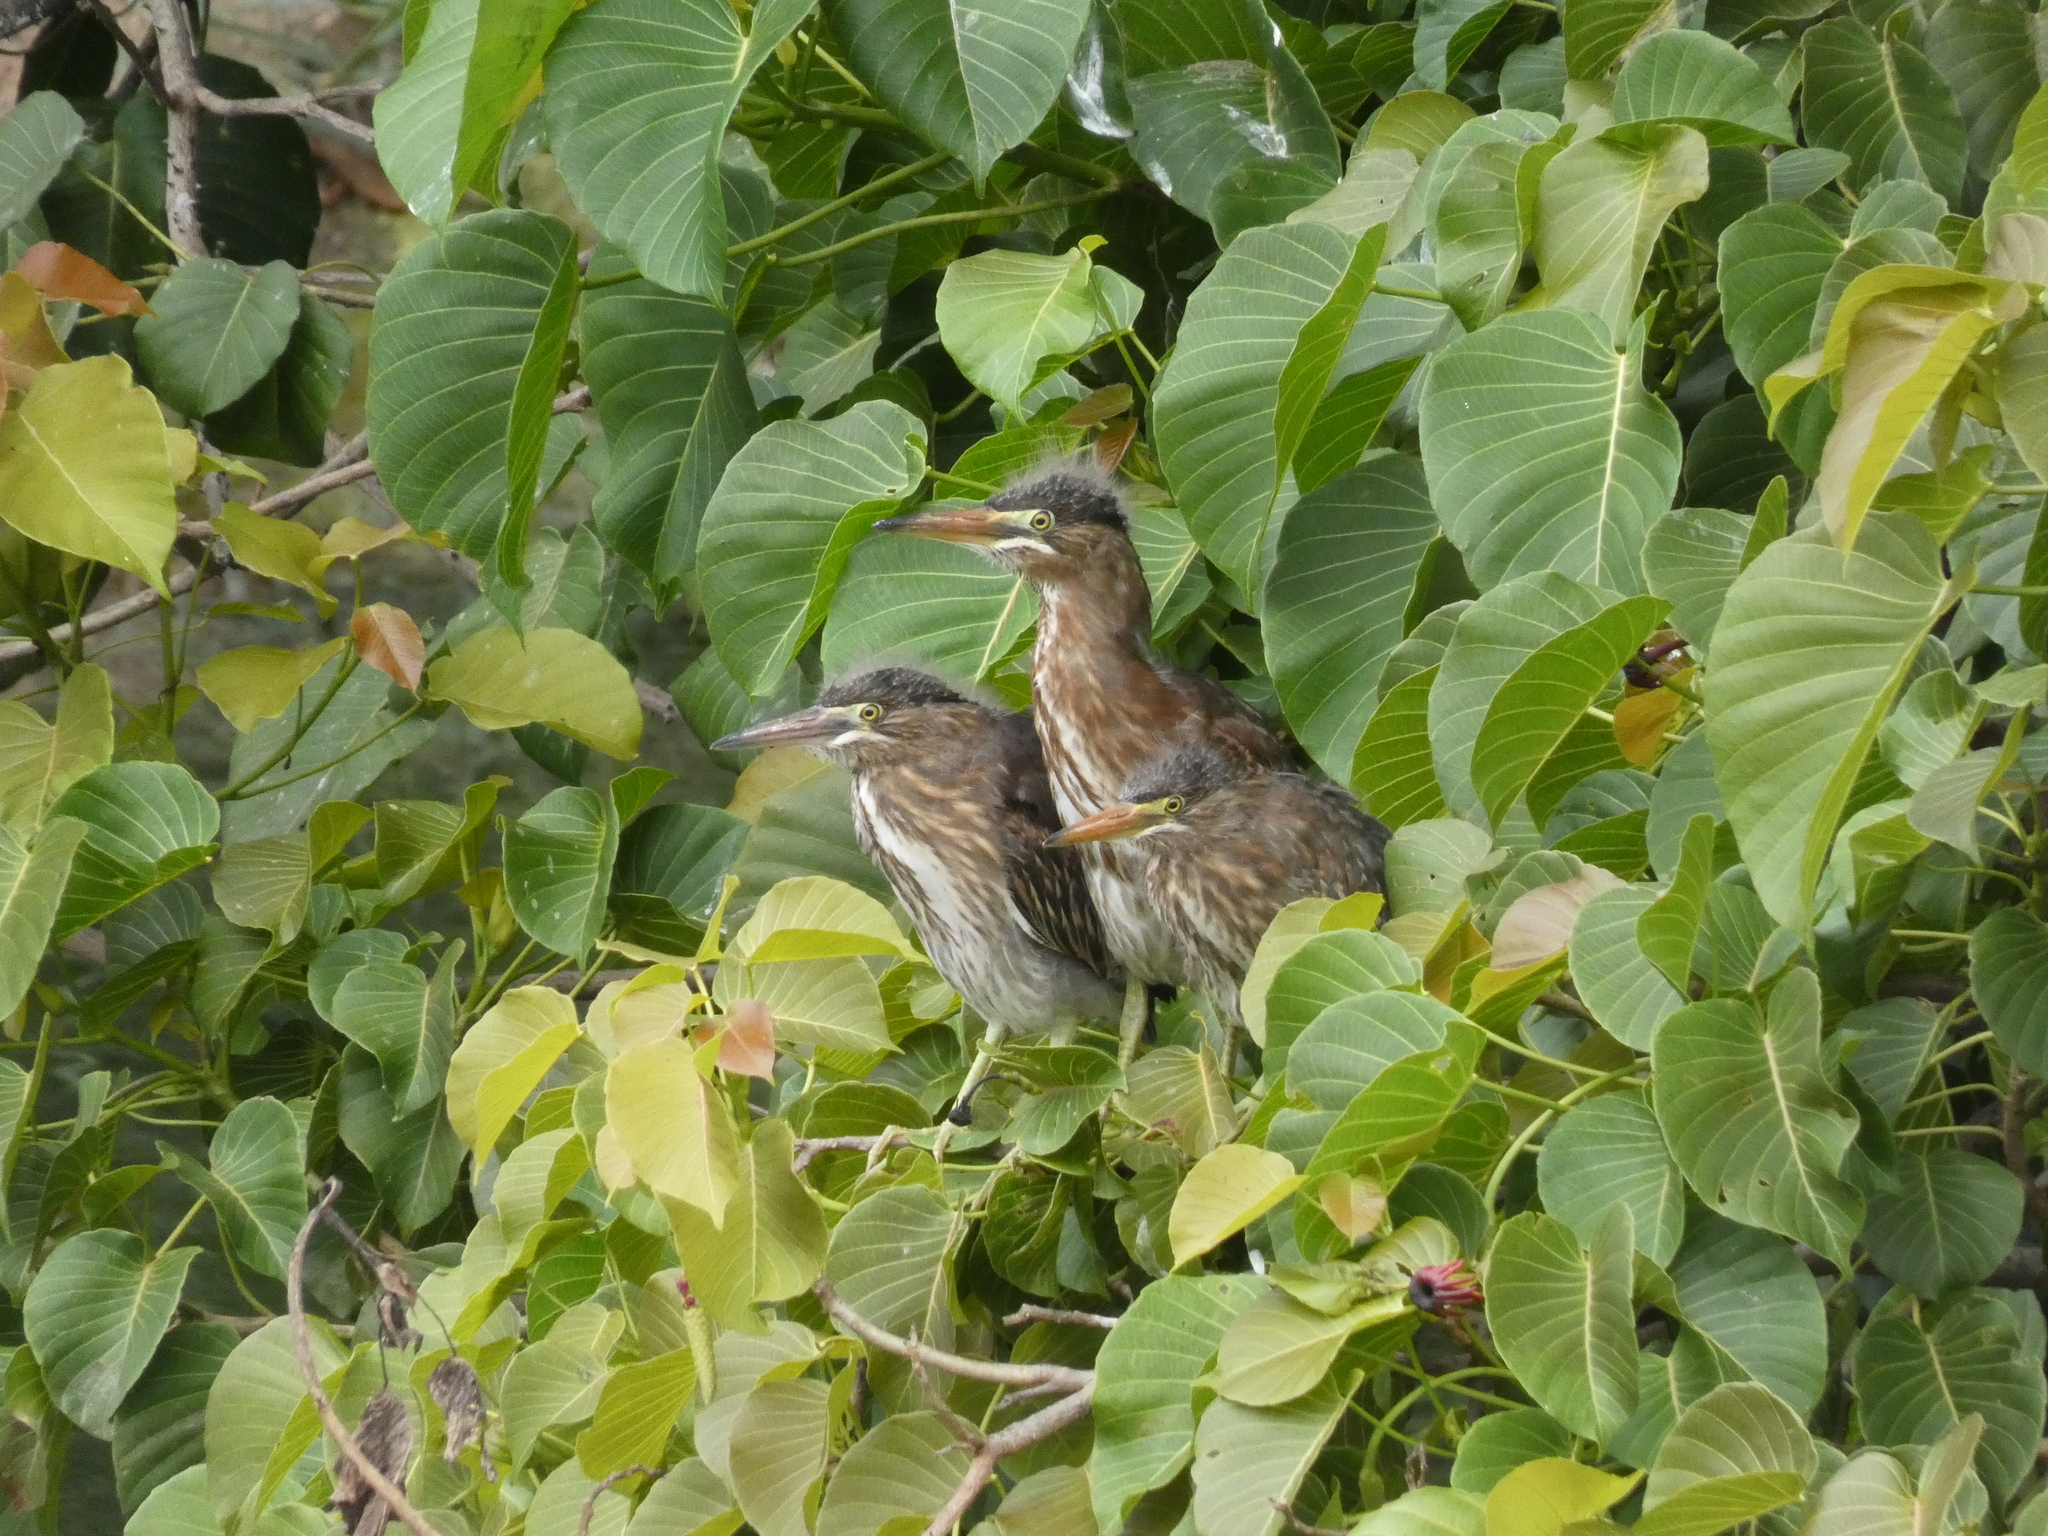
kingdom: Animalia
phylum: Chordata
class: Aves
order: Pelecaniformes
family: Ardeidae
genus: Butorides
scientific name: Butorides striata
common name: Striated heron
